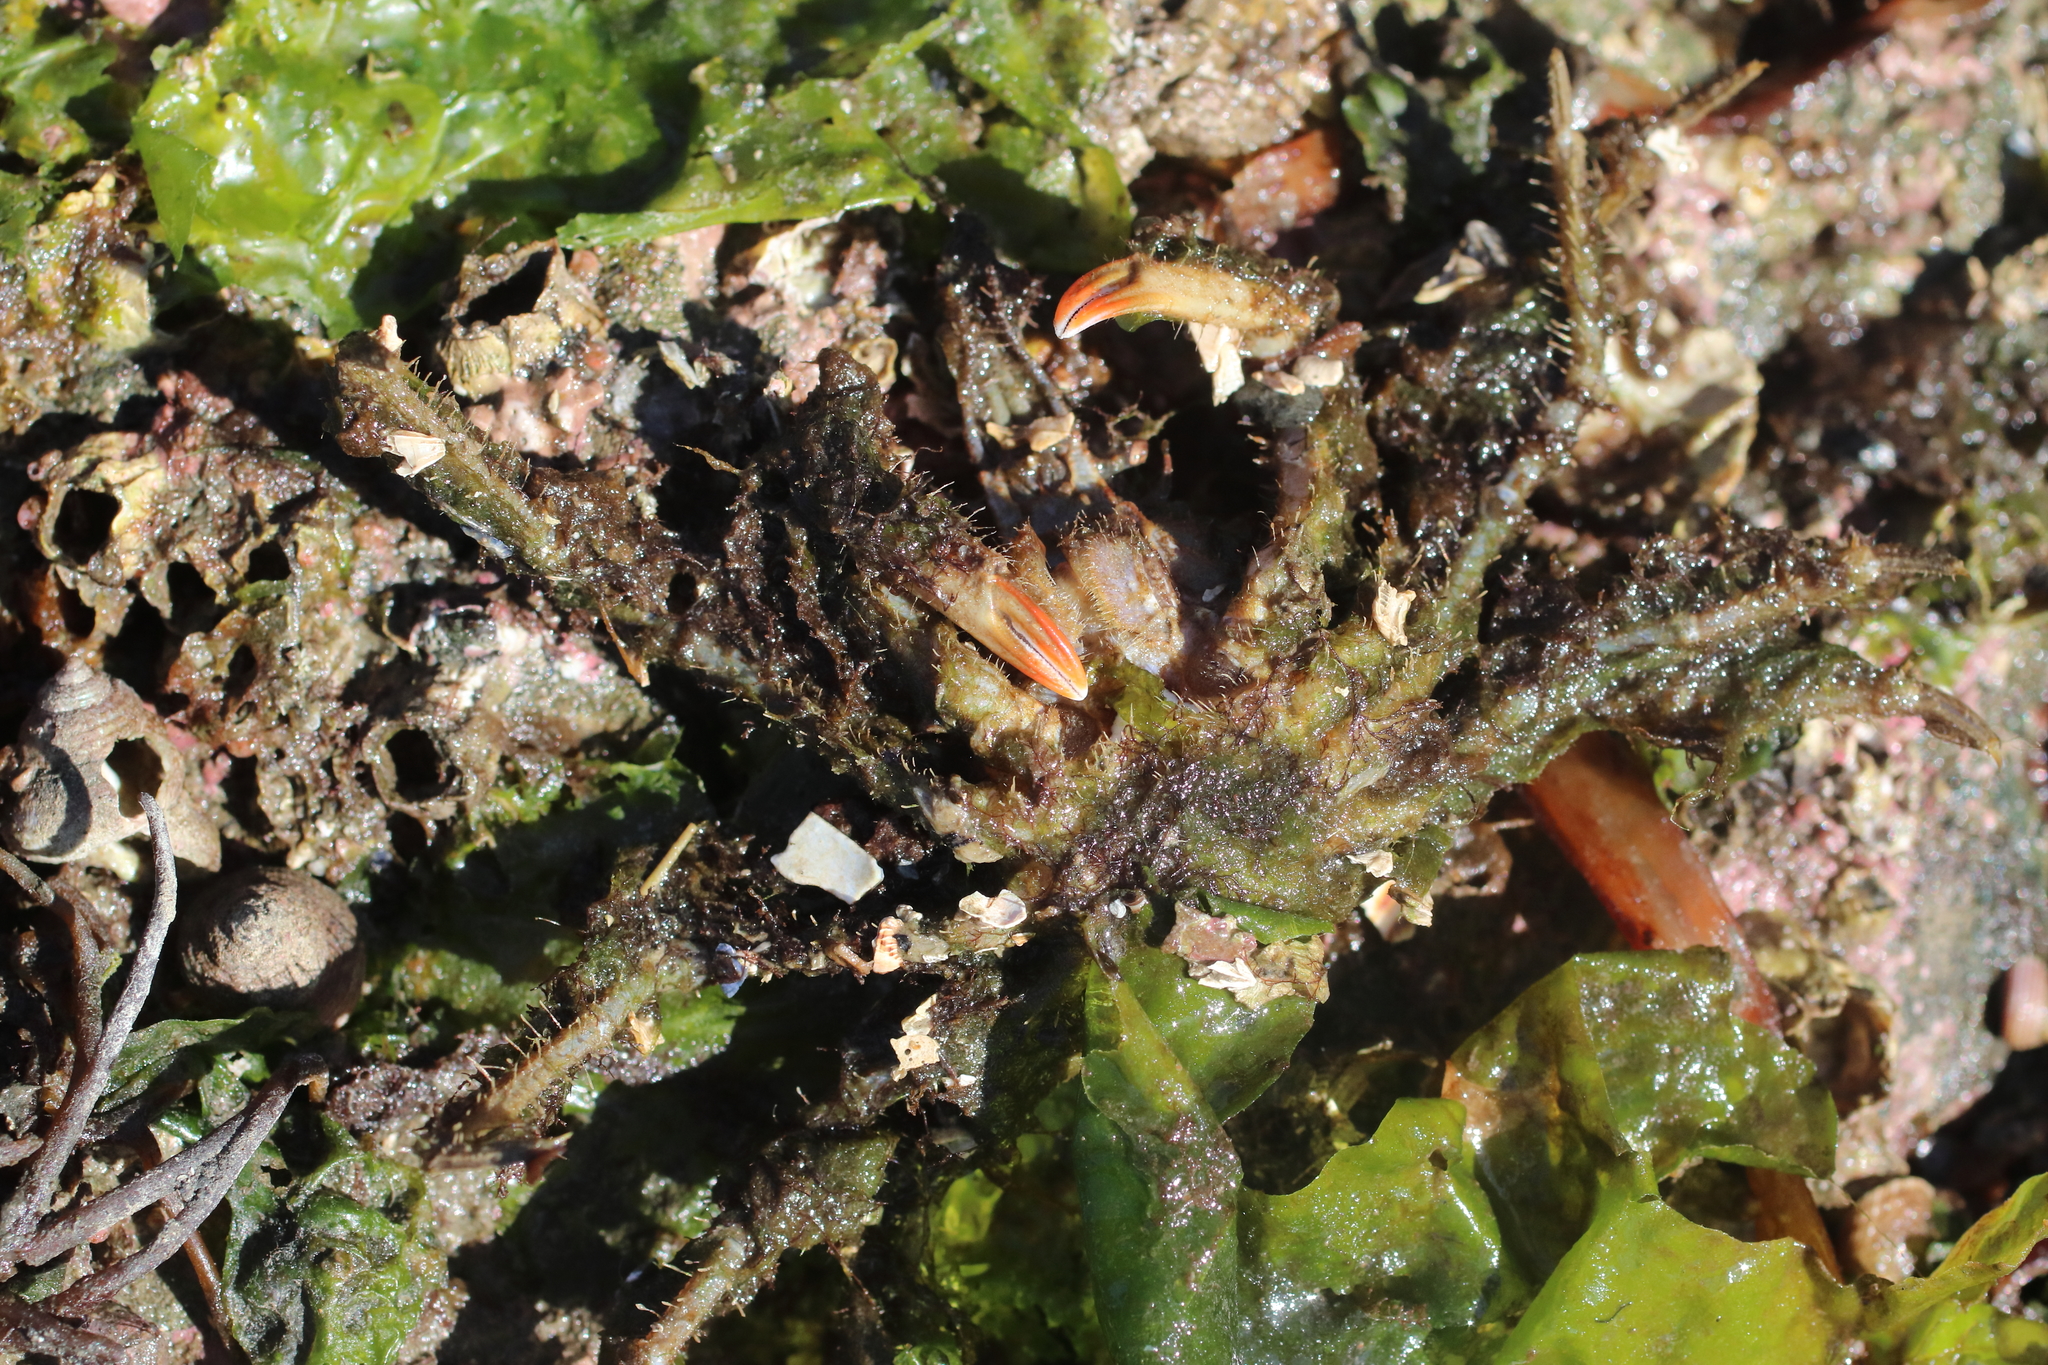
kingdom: Animalia
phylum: Arthropoda
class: Malacostraca
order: Decapoda
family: Oregoniidae
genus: Oregonia
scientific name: Oregonia gracilis
